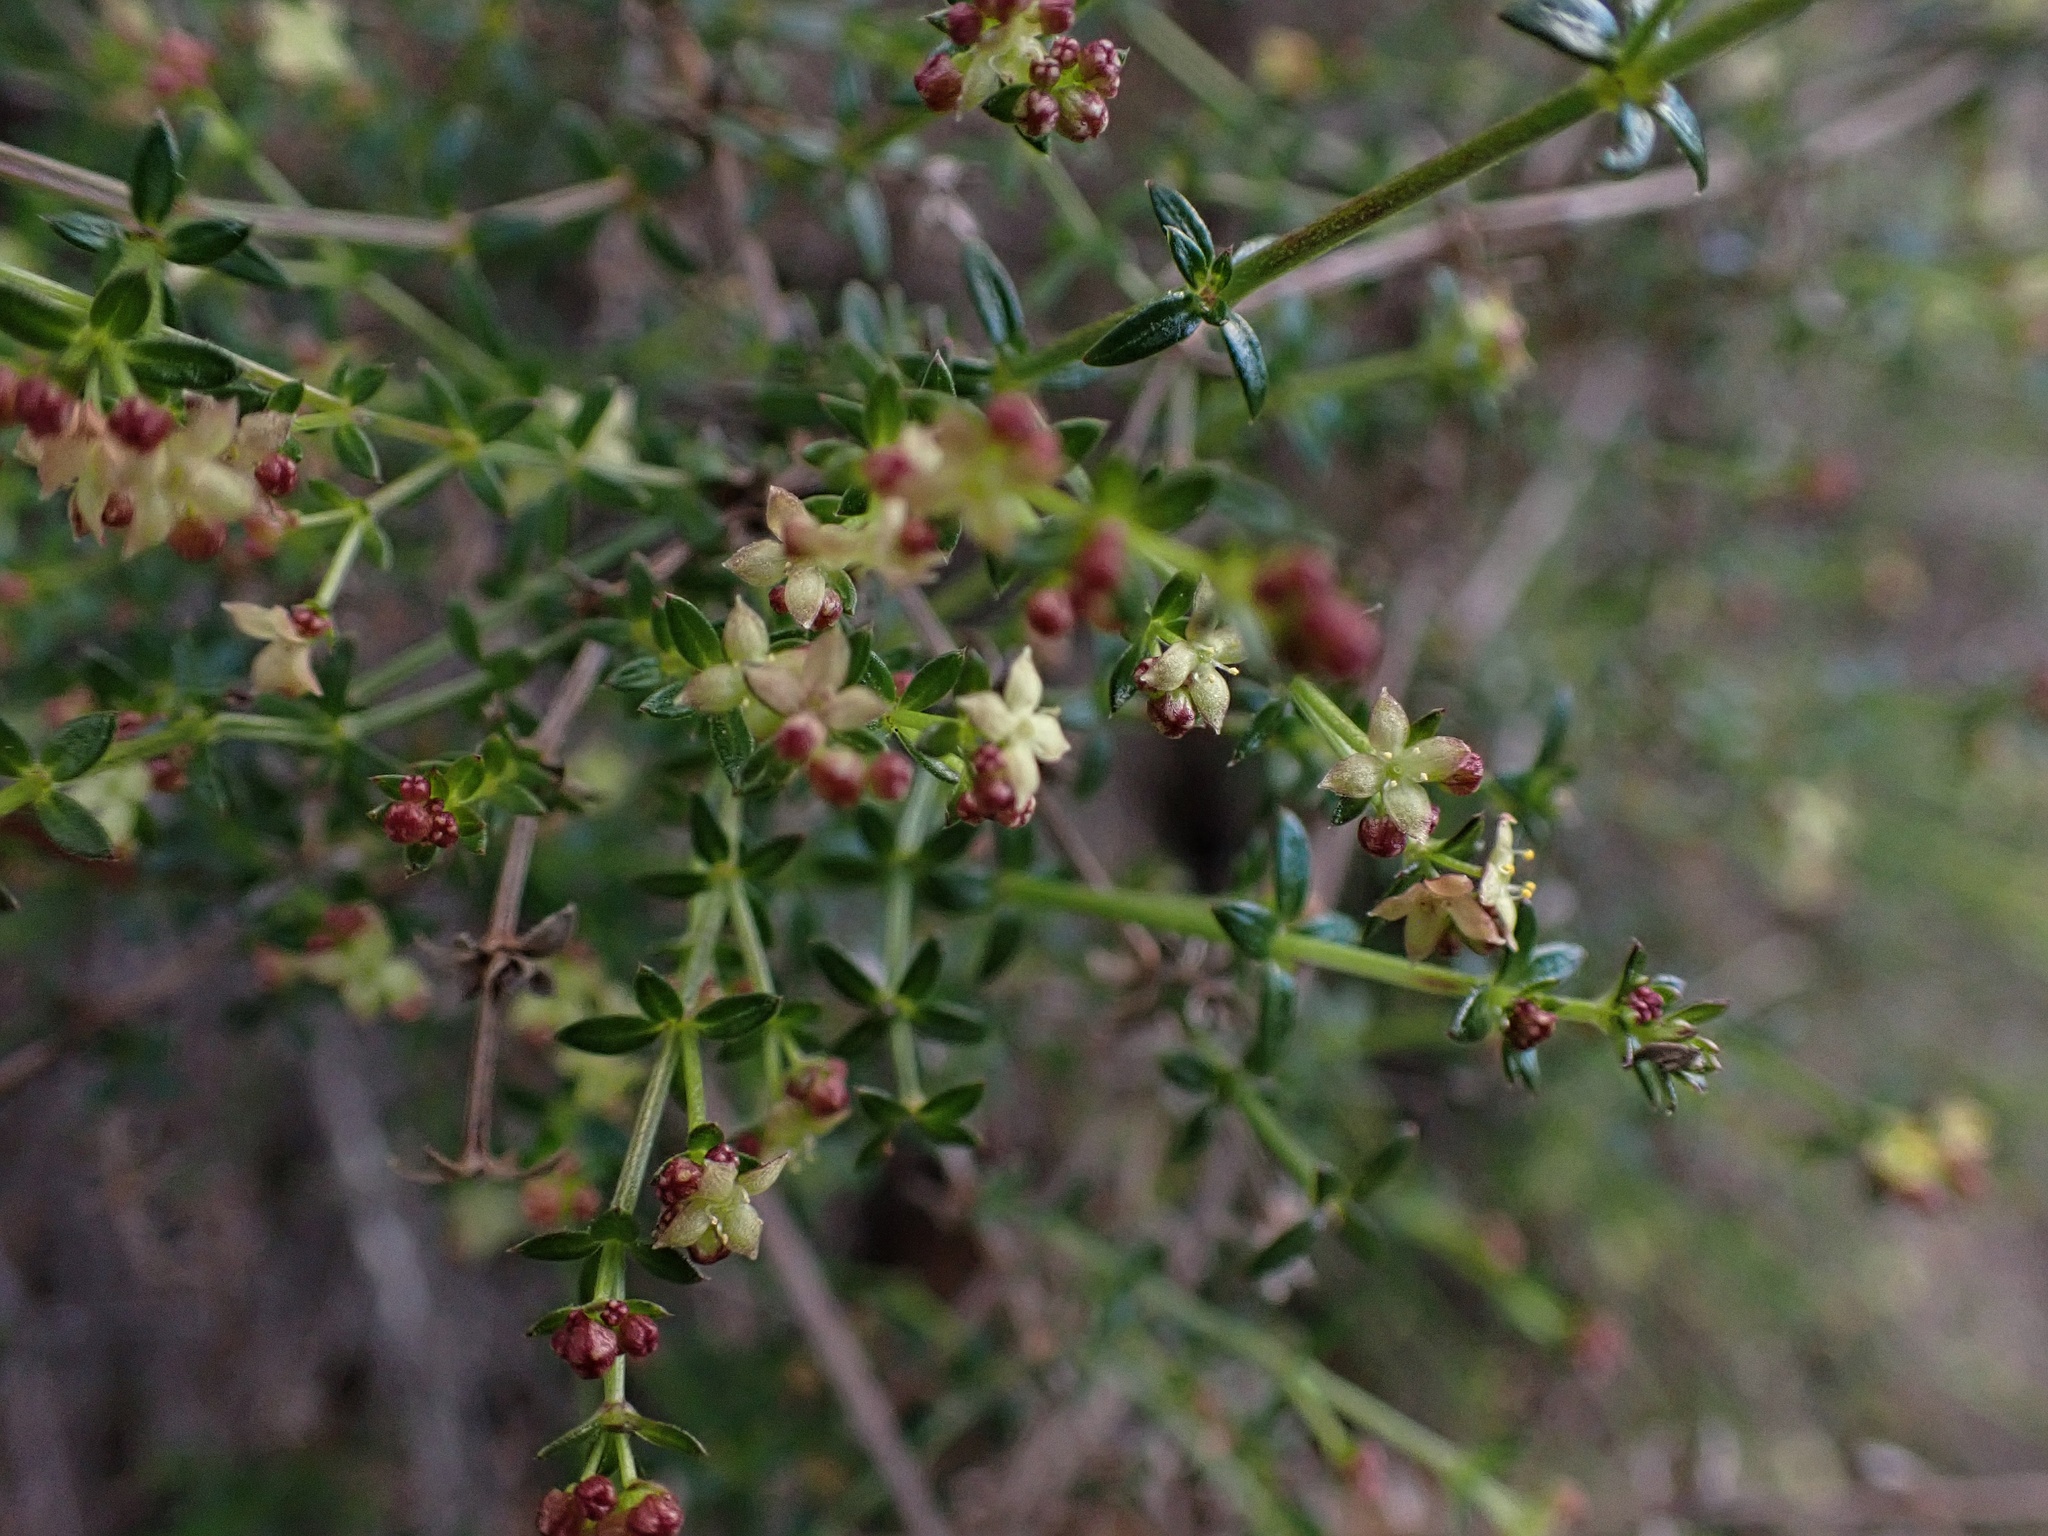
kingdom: Plantae
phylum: Tracheophyta
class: Magnoliopsida
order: Gentianales
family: Rubiaceae
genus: Galium
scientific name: Galium nuttallii
